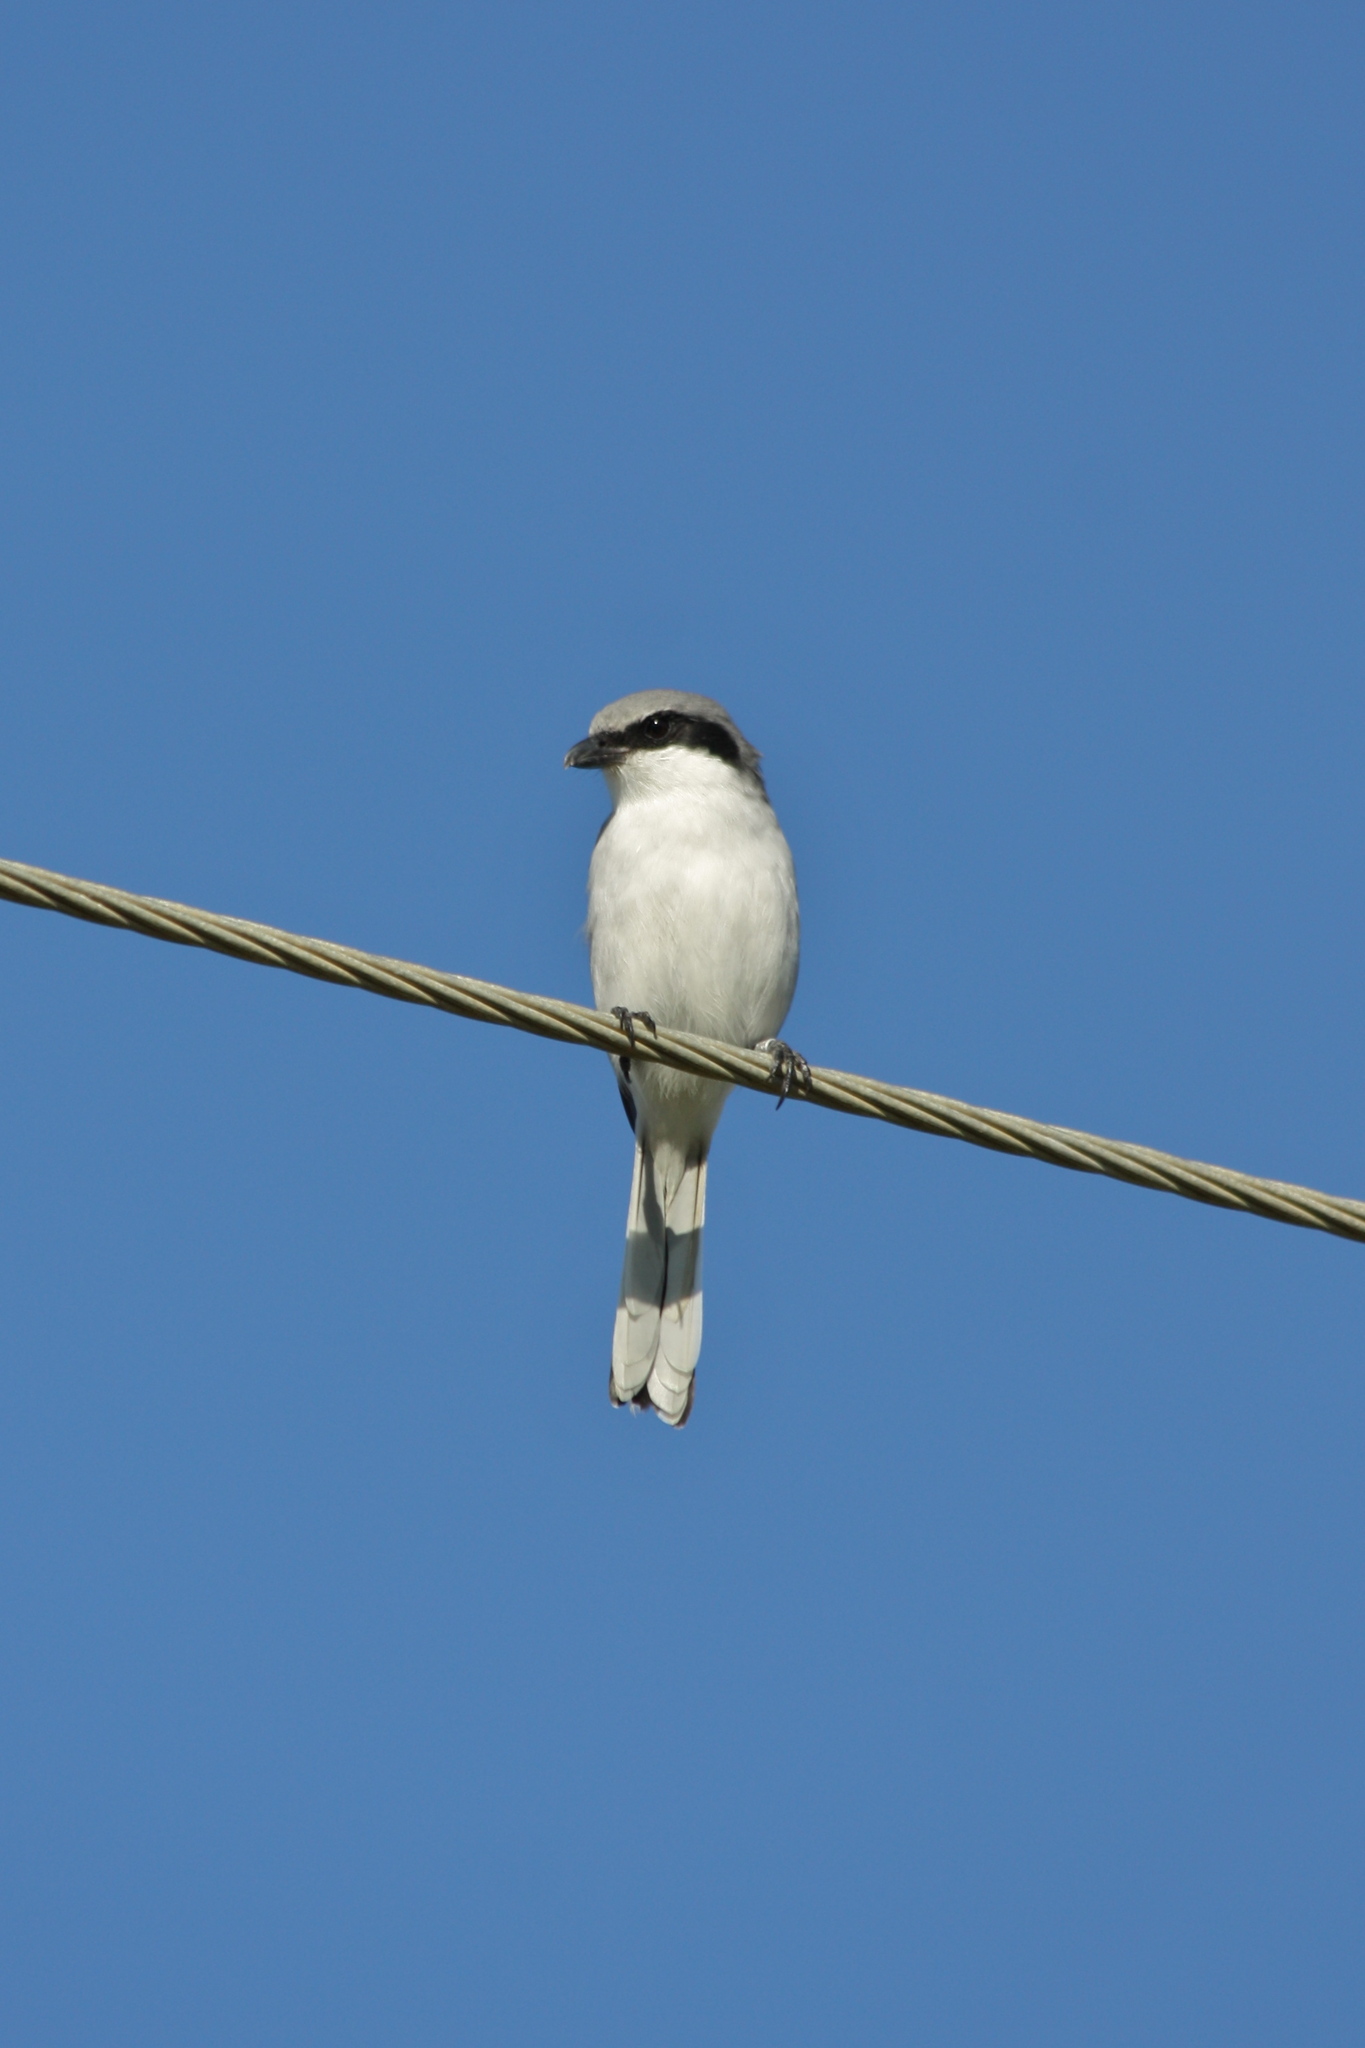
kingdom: Animalia
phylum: Chordata
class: Aves
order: Passeriformes
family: Laniidae
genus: Lanius
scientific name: Lanius ludovicianus
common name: Loggerhead shrike
